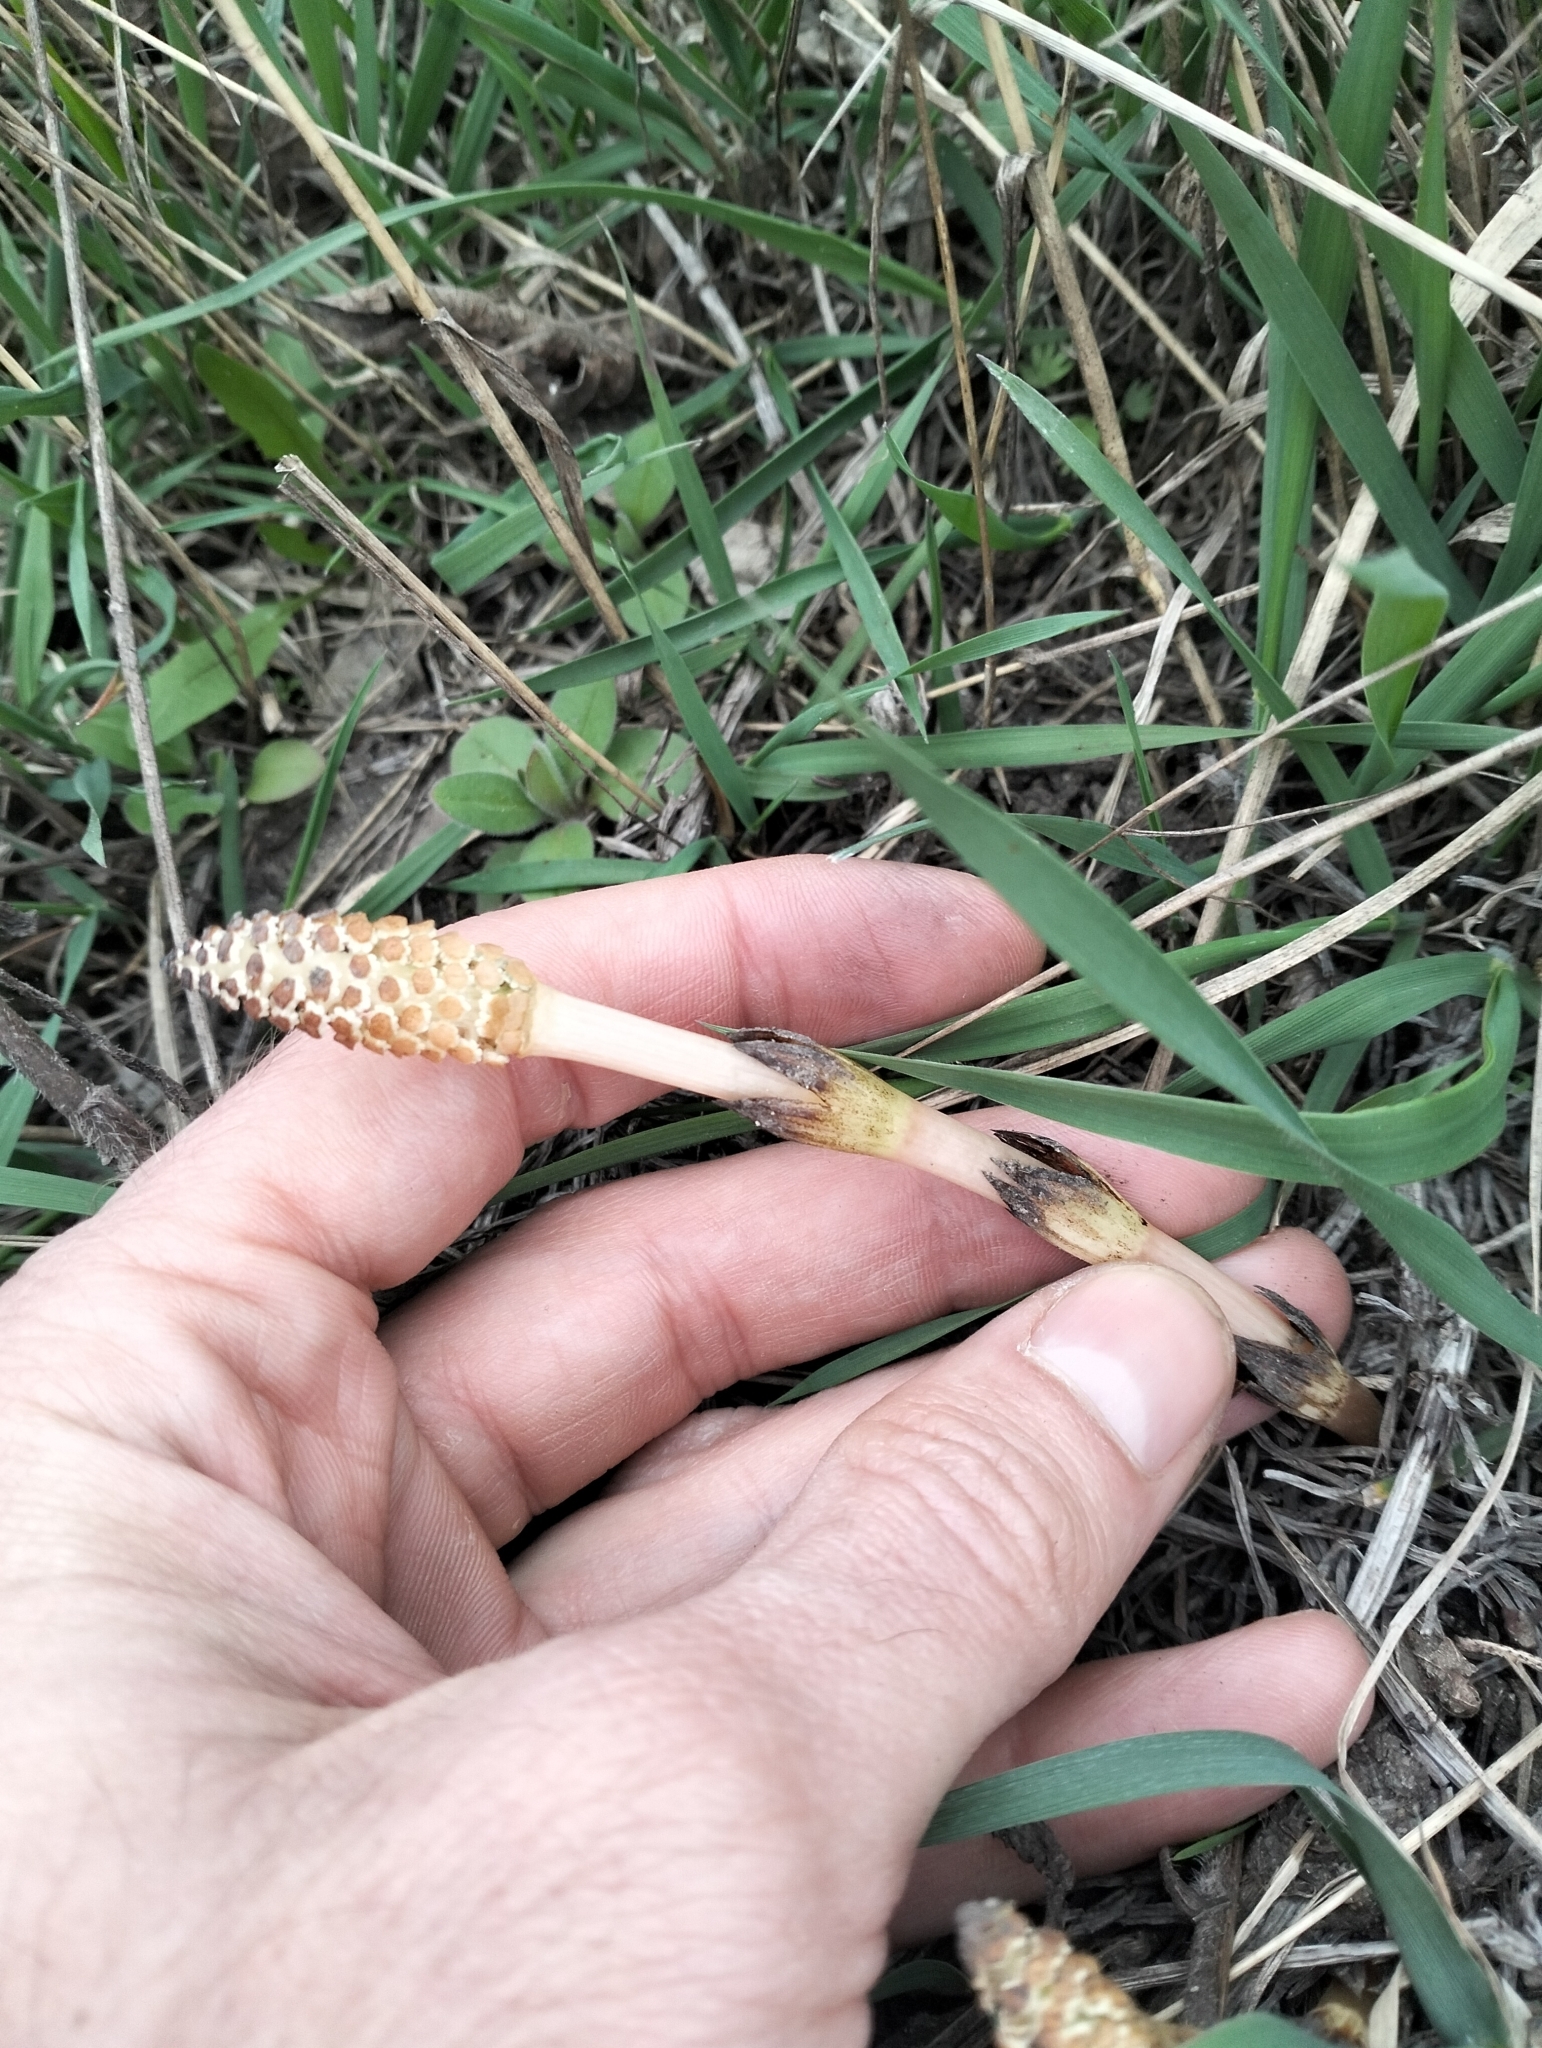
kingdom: Plantae
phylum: Tracheophyta
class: Polypodiopsida
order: Equisetales
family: Equisetaceae
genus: Equisetum
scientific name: Equisetum arvense
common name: Field horsetail
